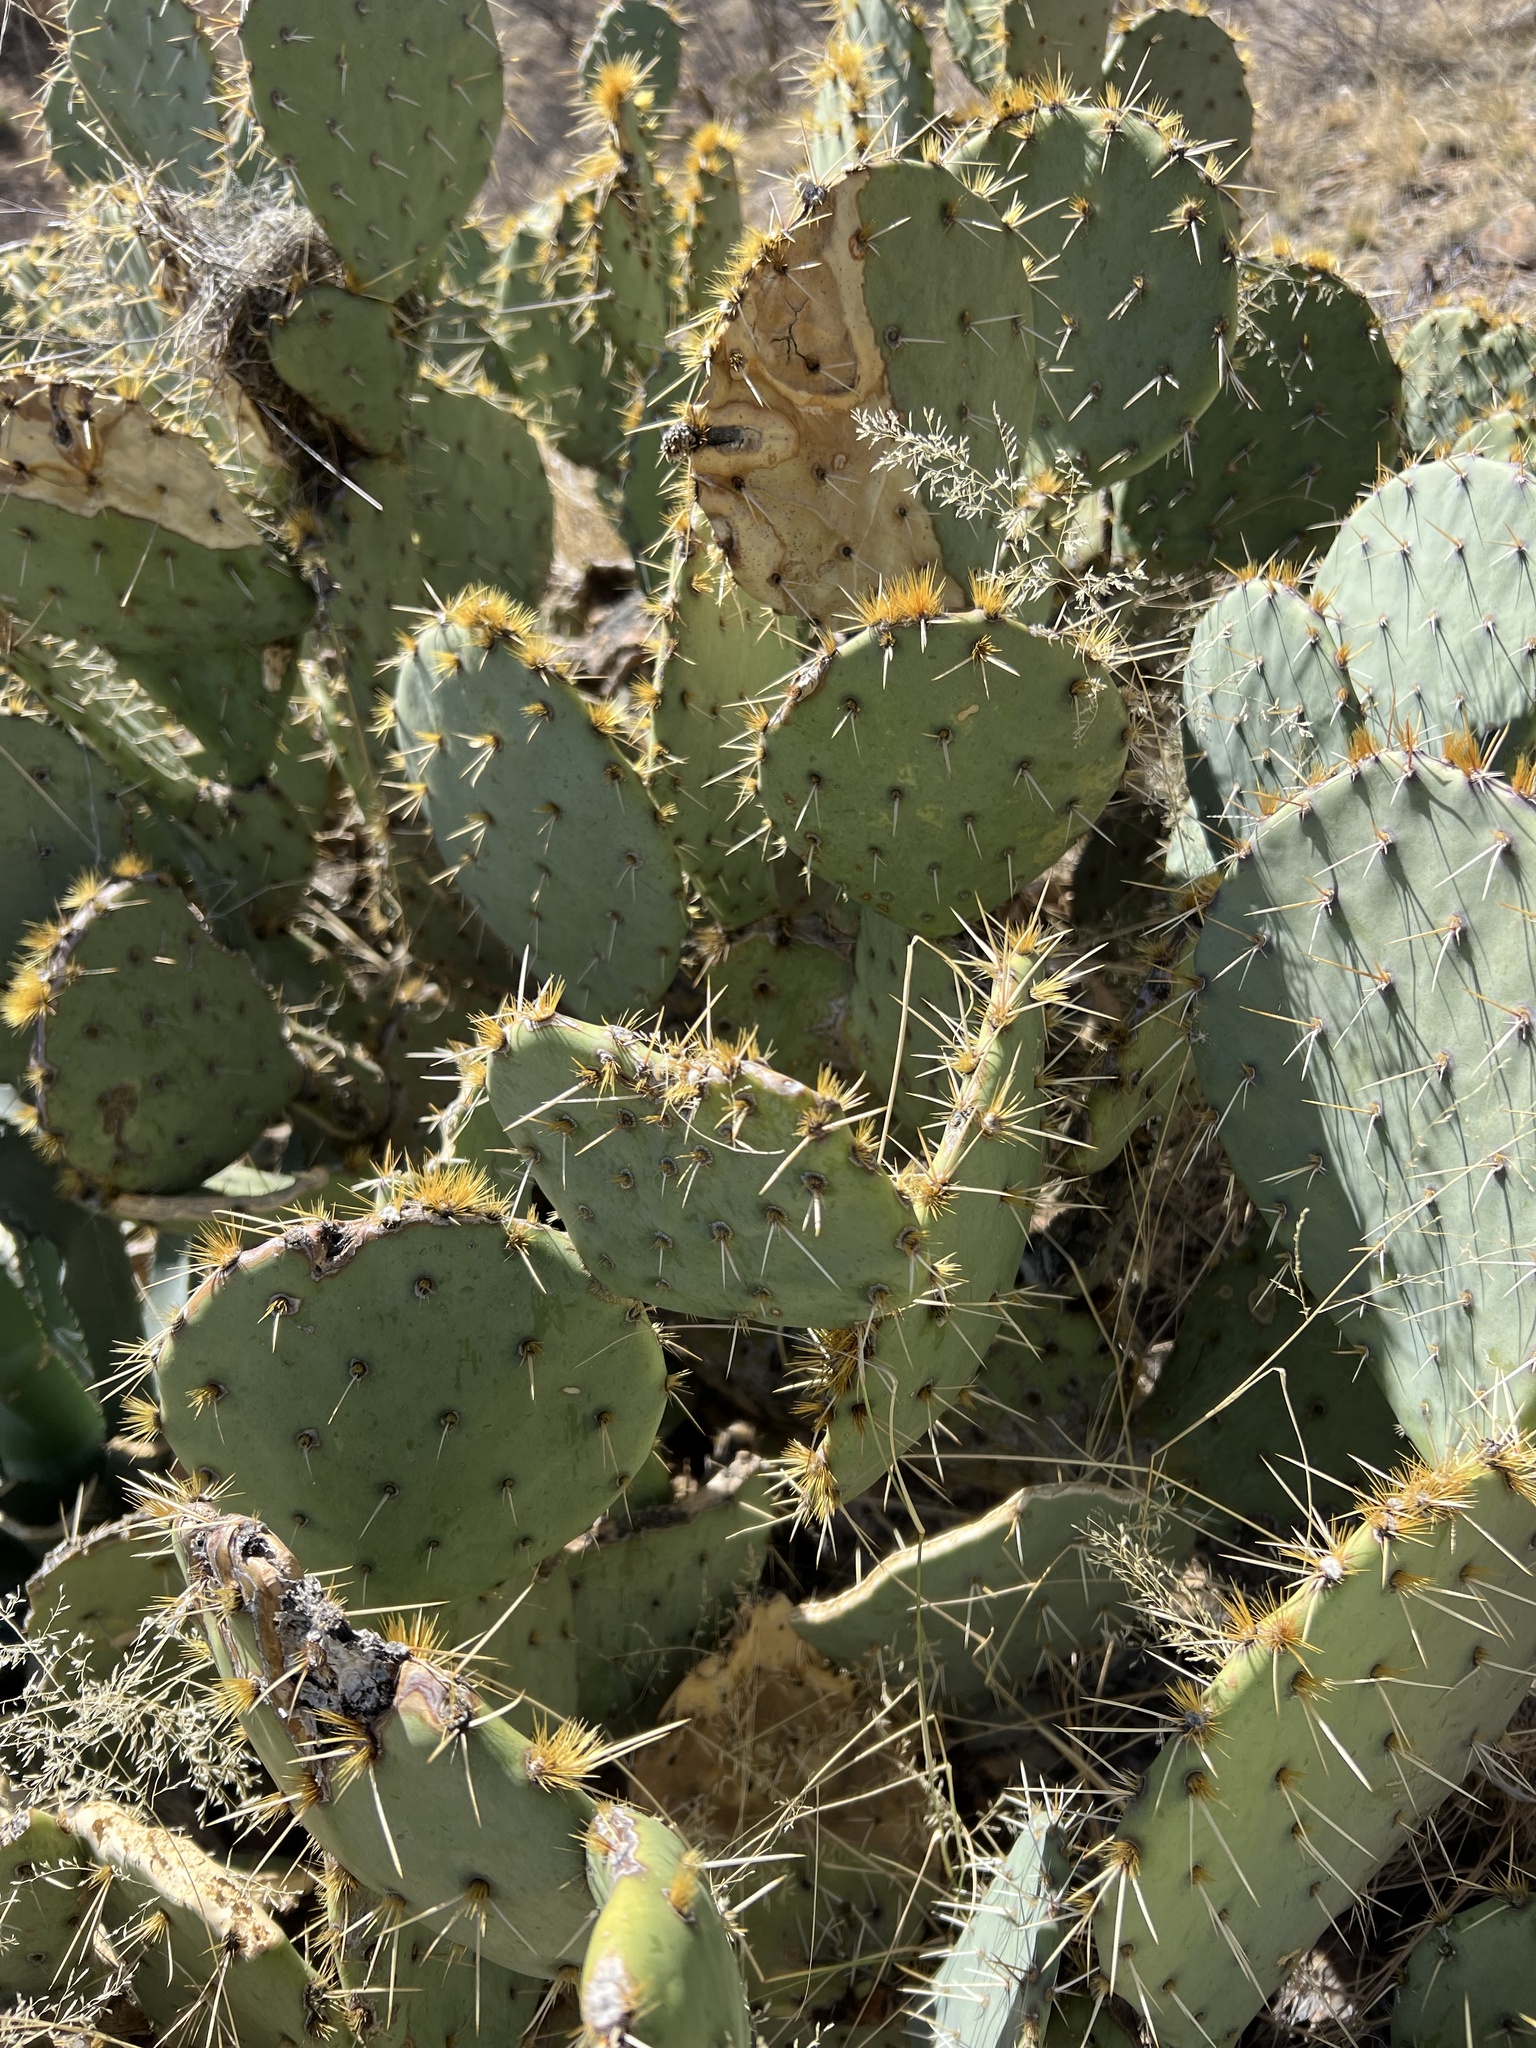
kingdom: Plantae
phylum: Tracheophyta
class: Magnoliopsida
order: Caryophyllales
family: Cactaceae
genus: Opuntia
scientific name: Opuntia engelmannii
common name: Cactus-apple
